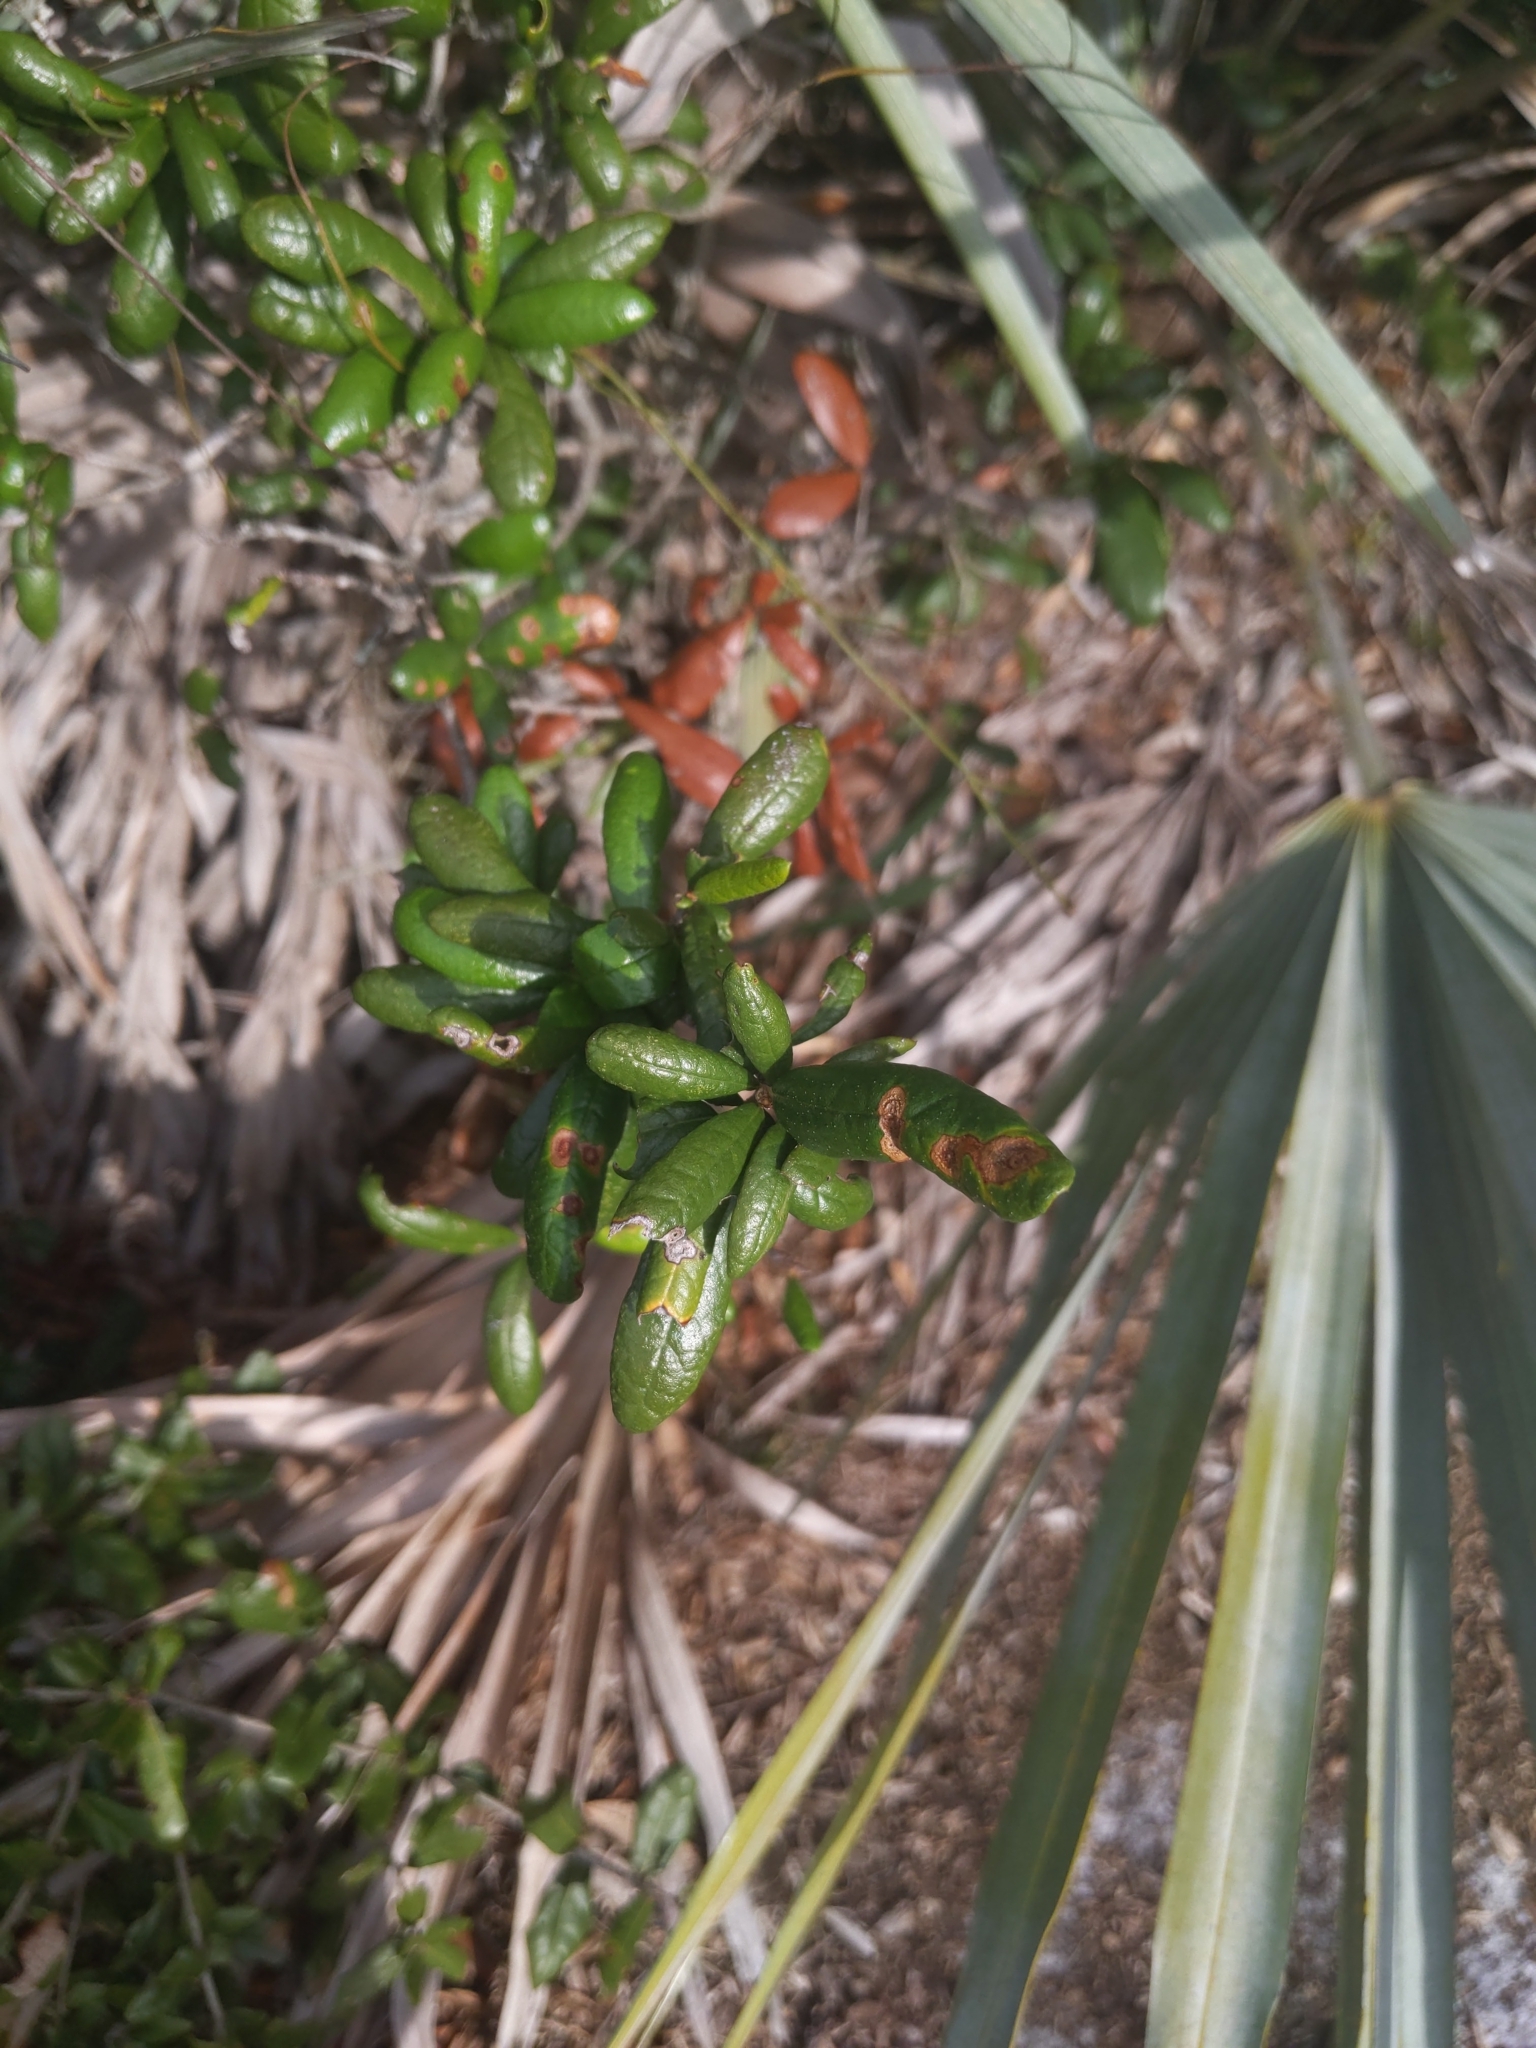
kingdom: Plantae
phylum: Tracheophyta
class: Magnoliopsida
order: Fagales
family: Fagaceae
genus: Quercus
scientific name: Quercus geminata
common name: Sand live oak
